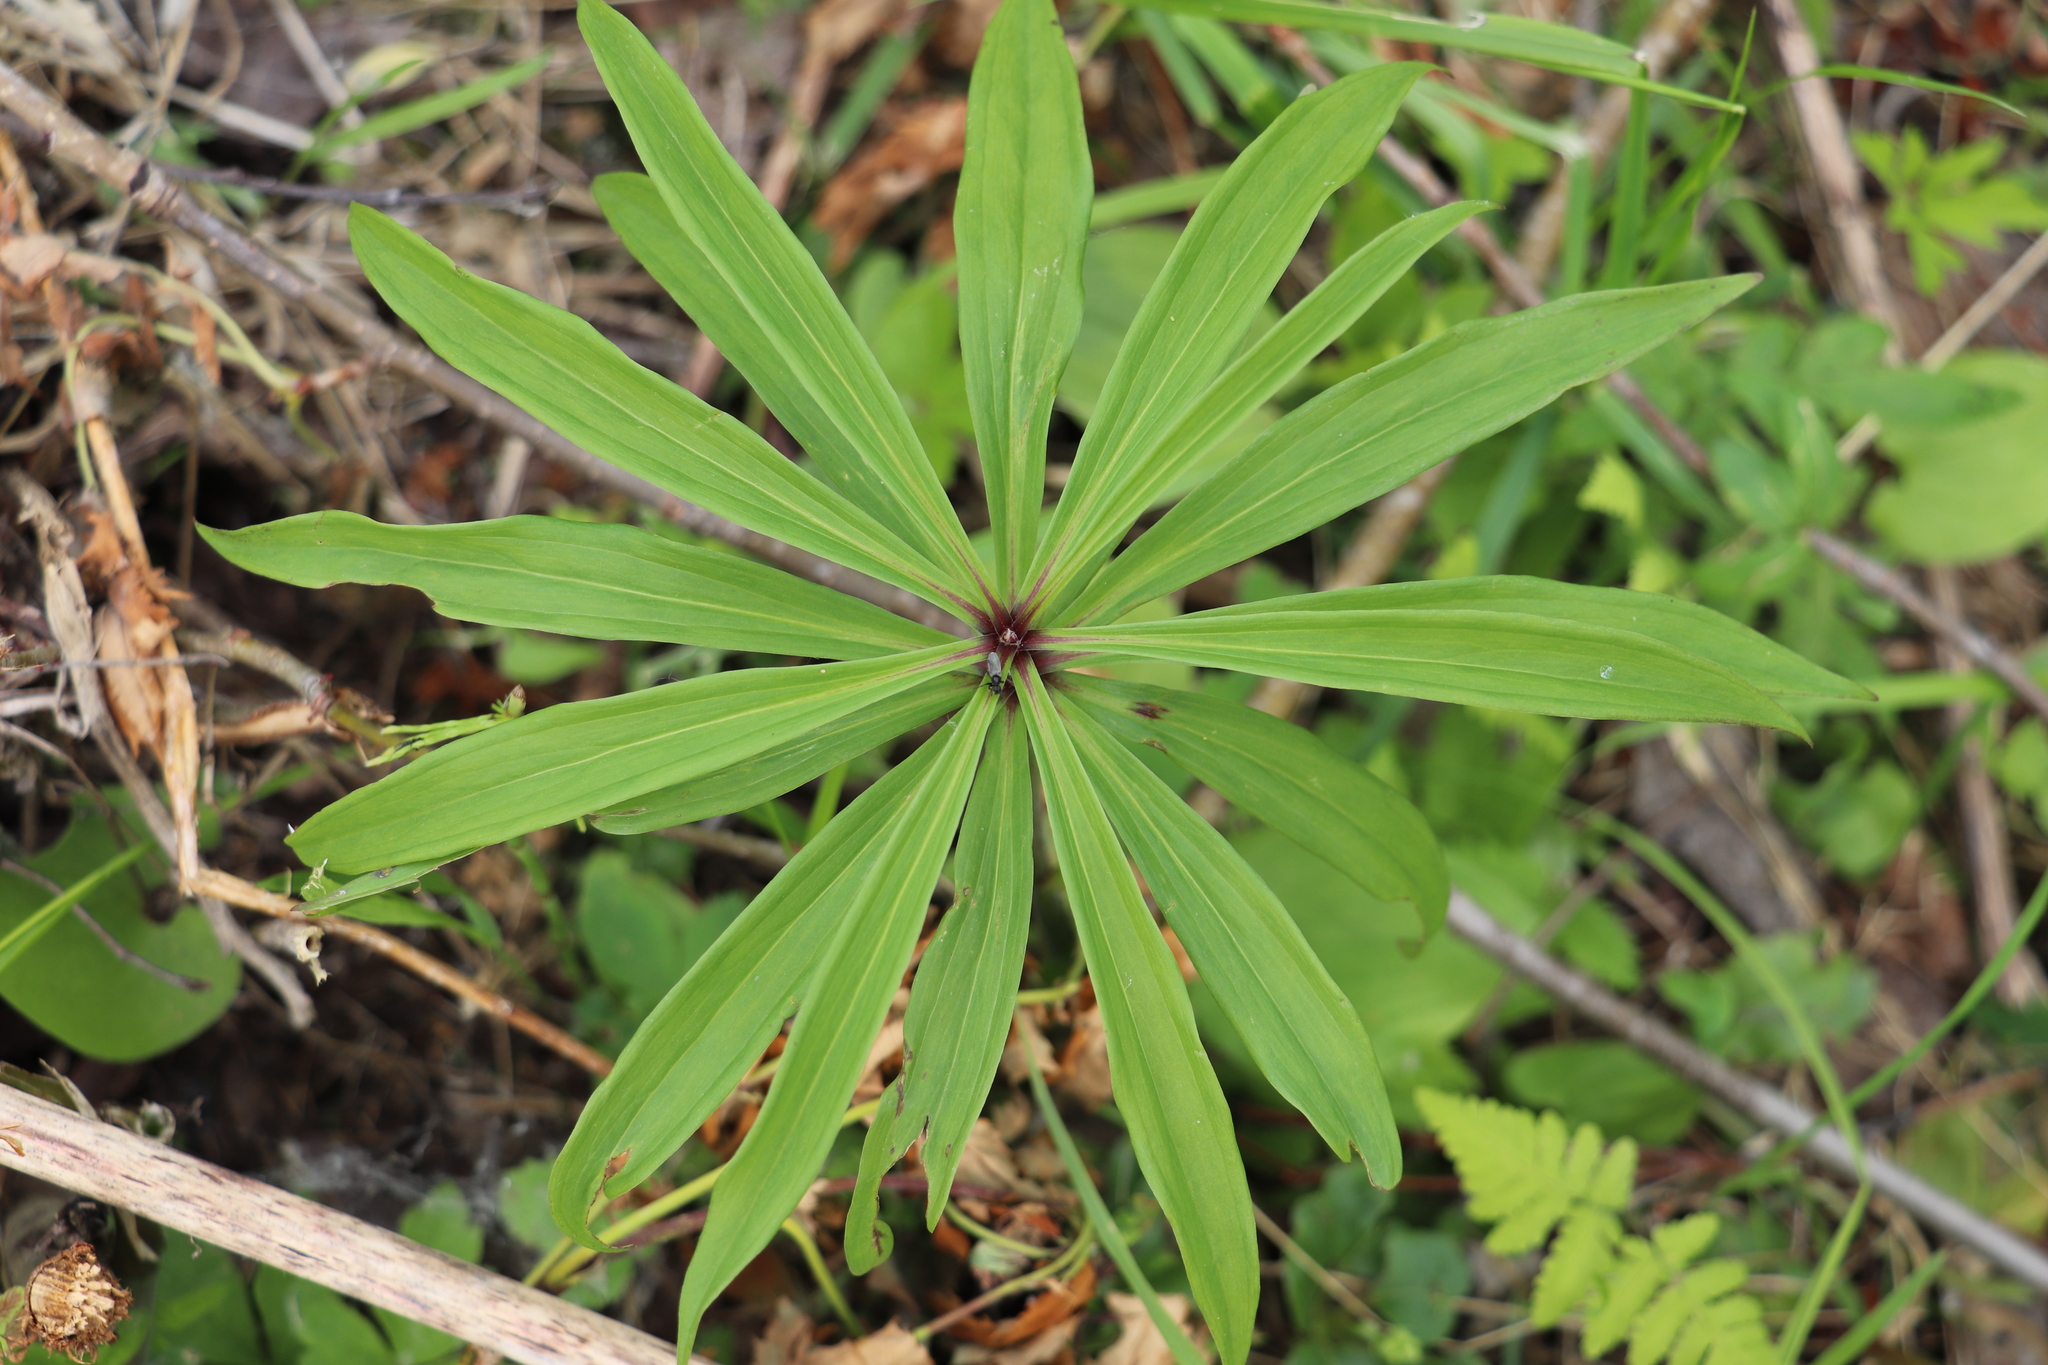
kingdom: Plantae
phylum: Tracheophyta
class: Liliopsida
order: Liliales
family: Liliaceae
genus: Lilium
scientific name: Lilium martagon
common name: Martagon lily
